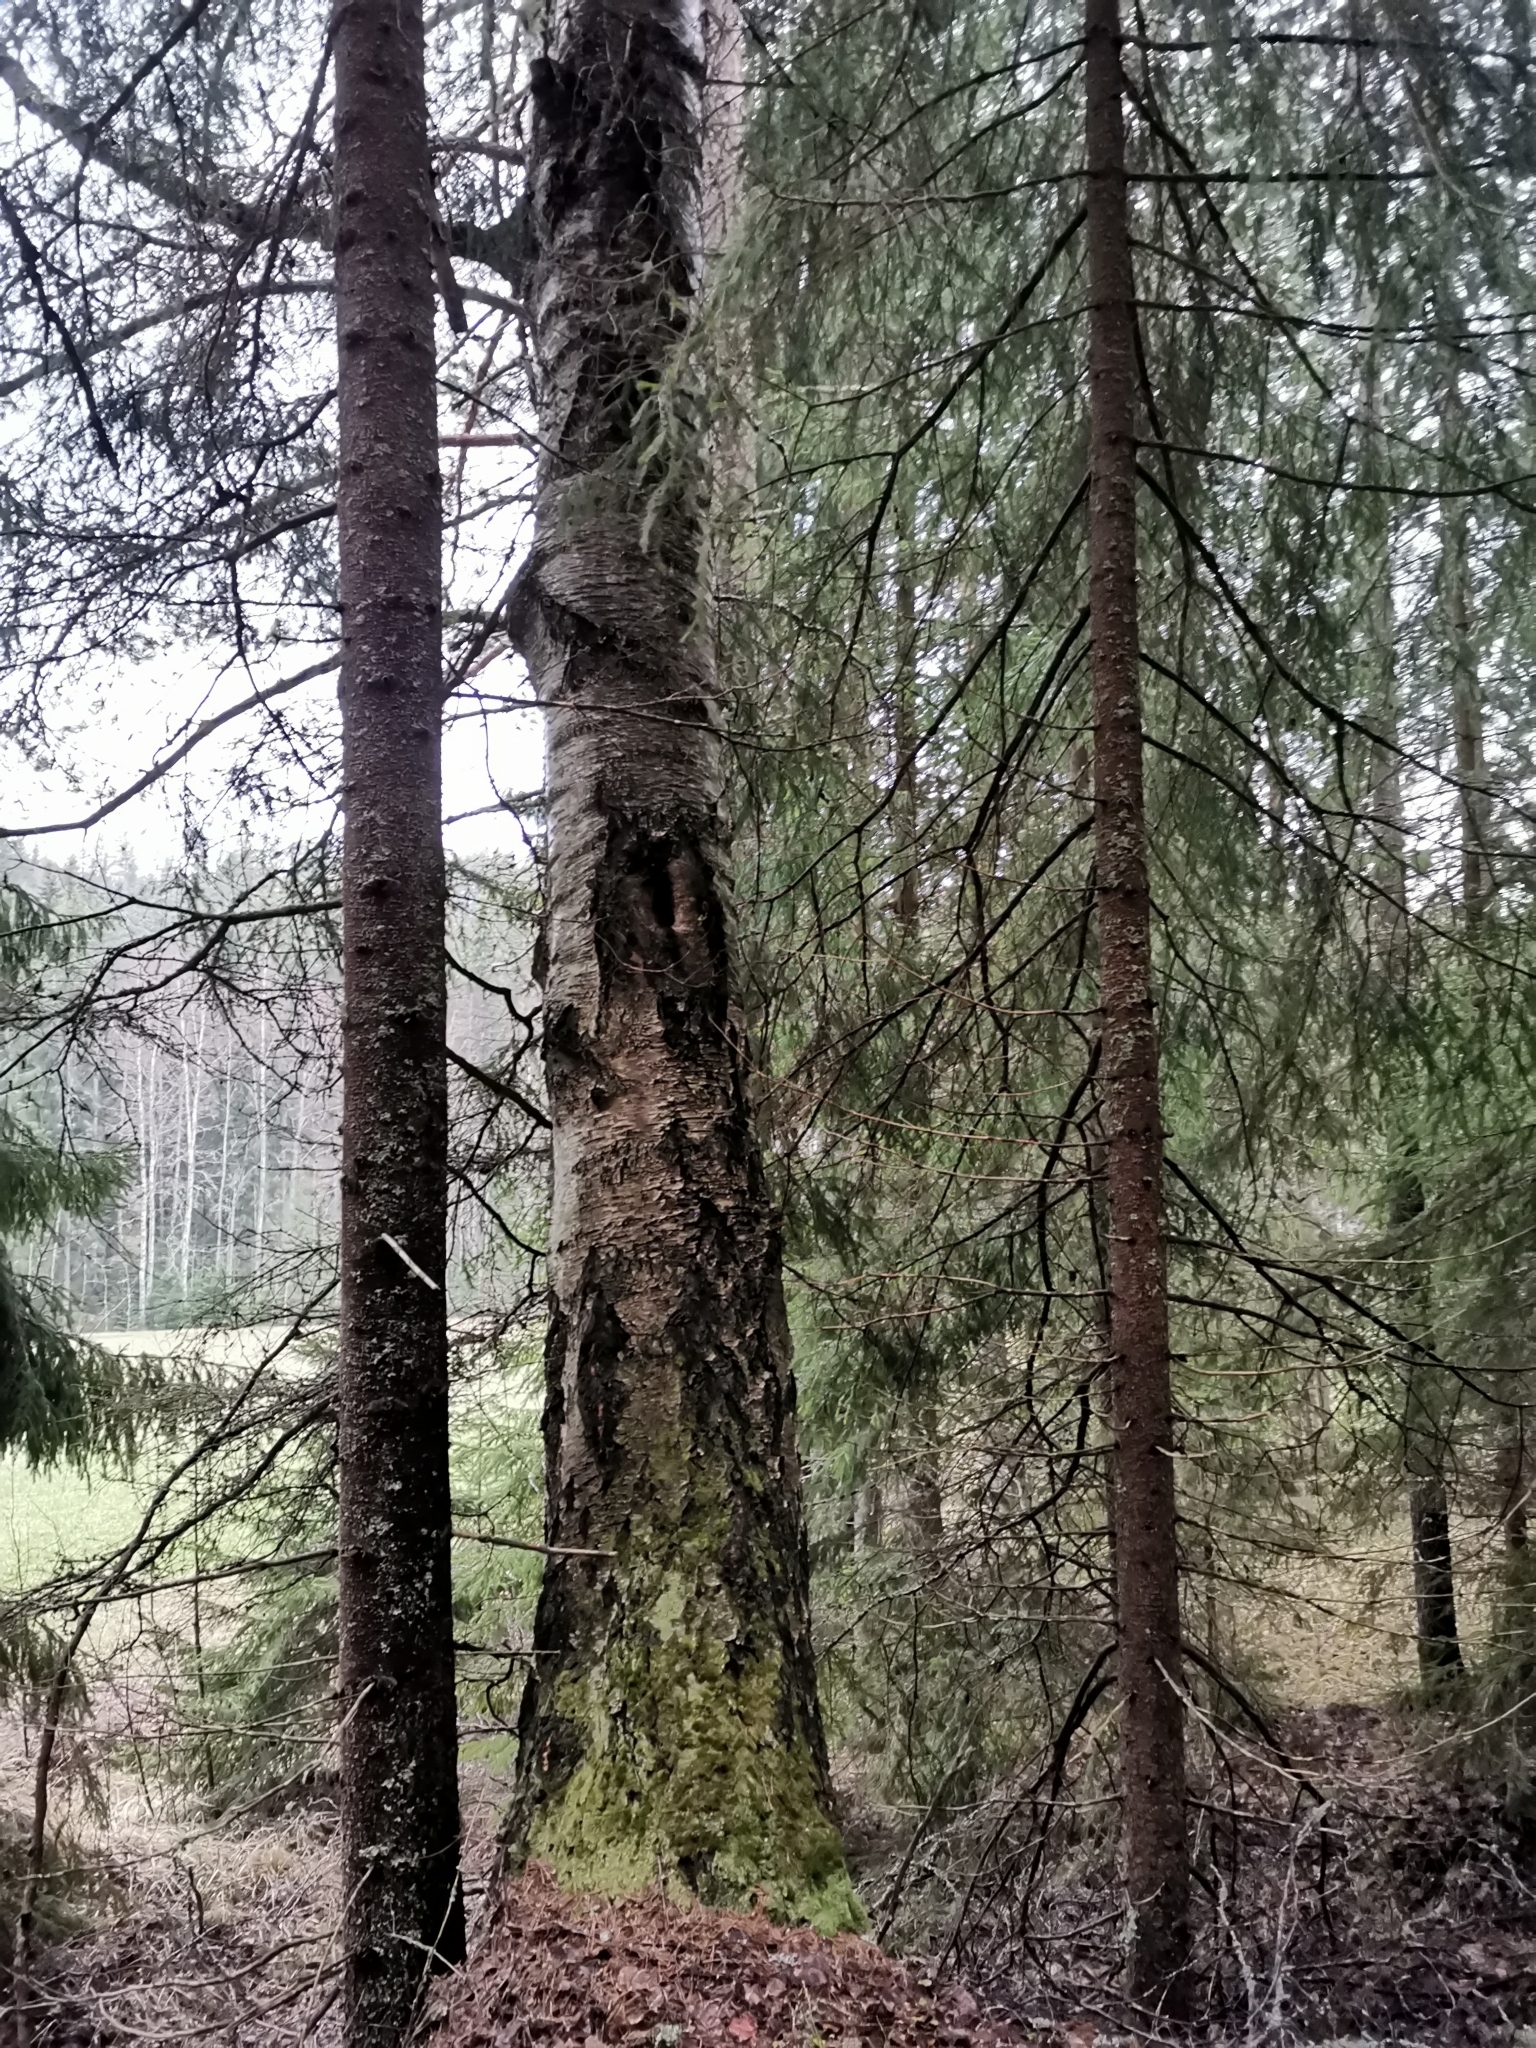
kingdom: Animalia
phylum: Chordata
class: Mammalia
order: Rodentia
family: Sciuridae
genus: Pteromys
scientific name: Pteromys volans
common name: Siberian flying squirrel
